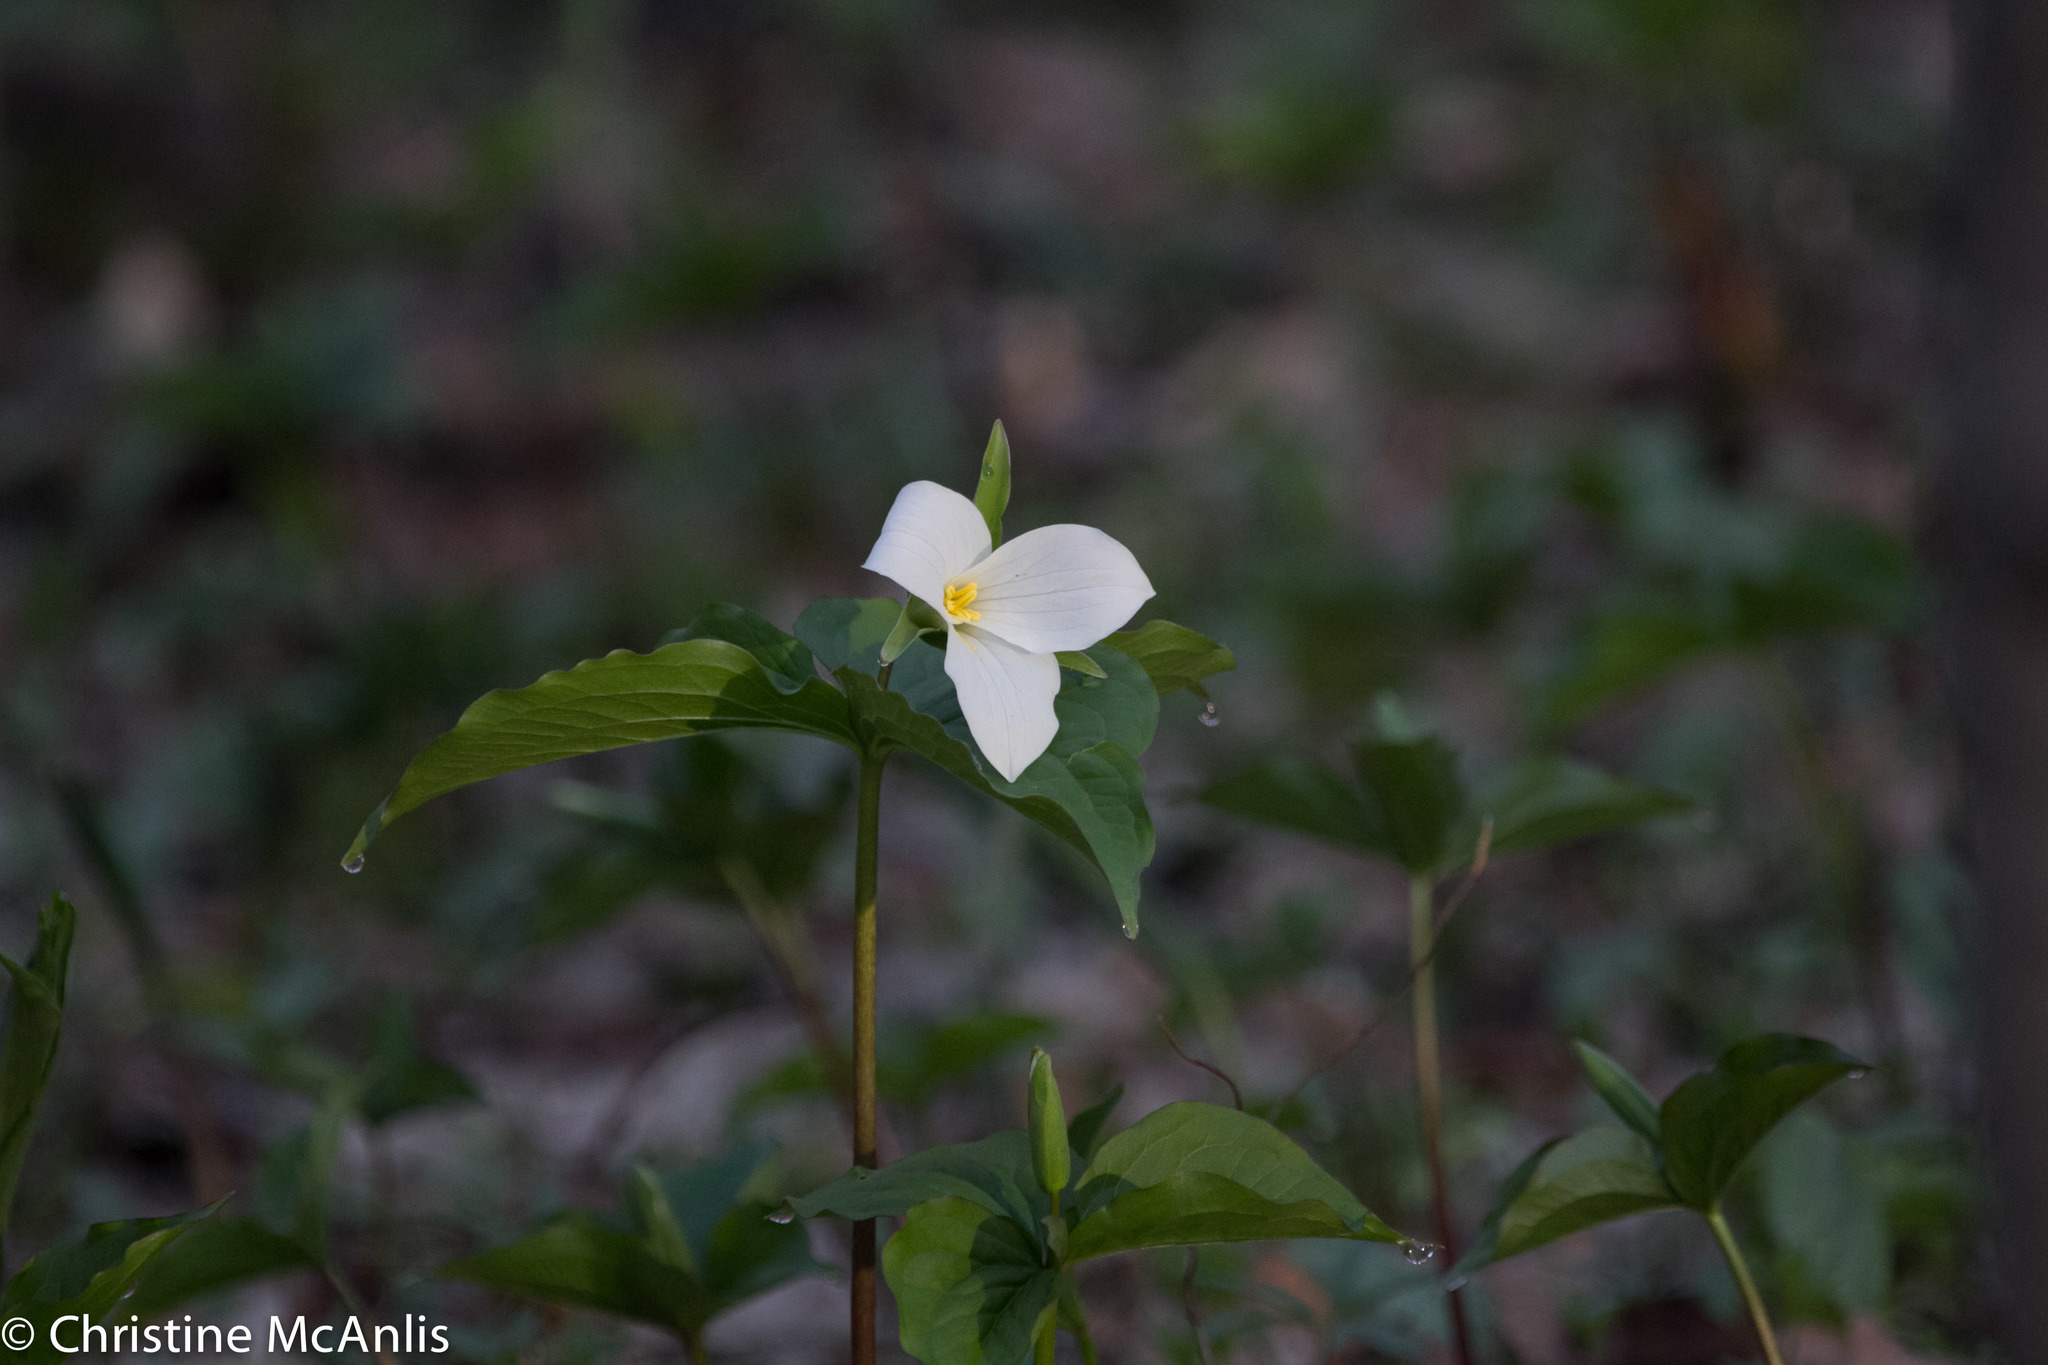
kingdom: Plantae
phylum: Tracheophyta
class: Liliopsida
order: Liliales
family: Melanthiaceae
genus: Trillium
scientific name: Trillium grandiflorum
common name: Great white trillium
